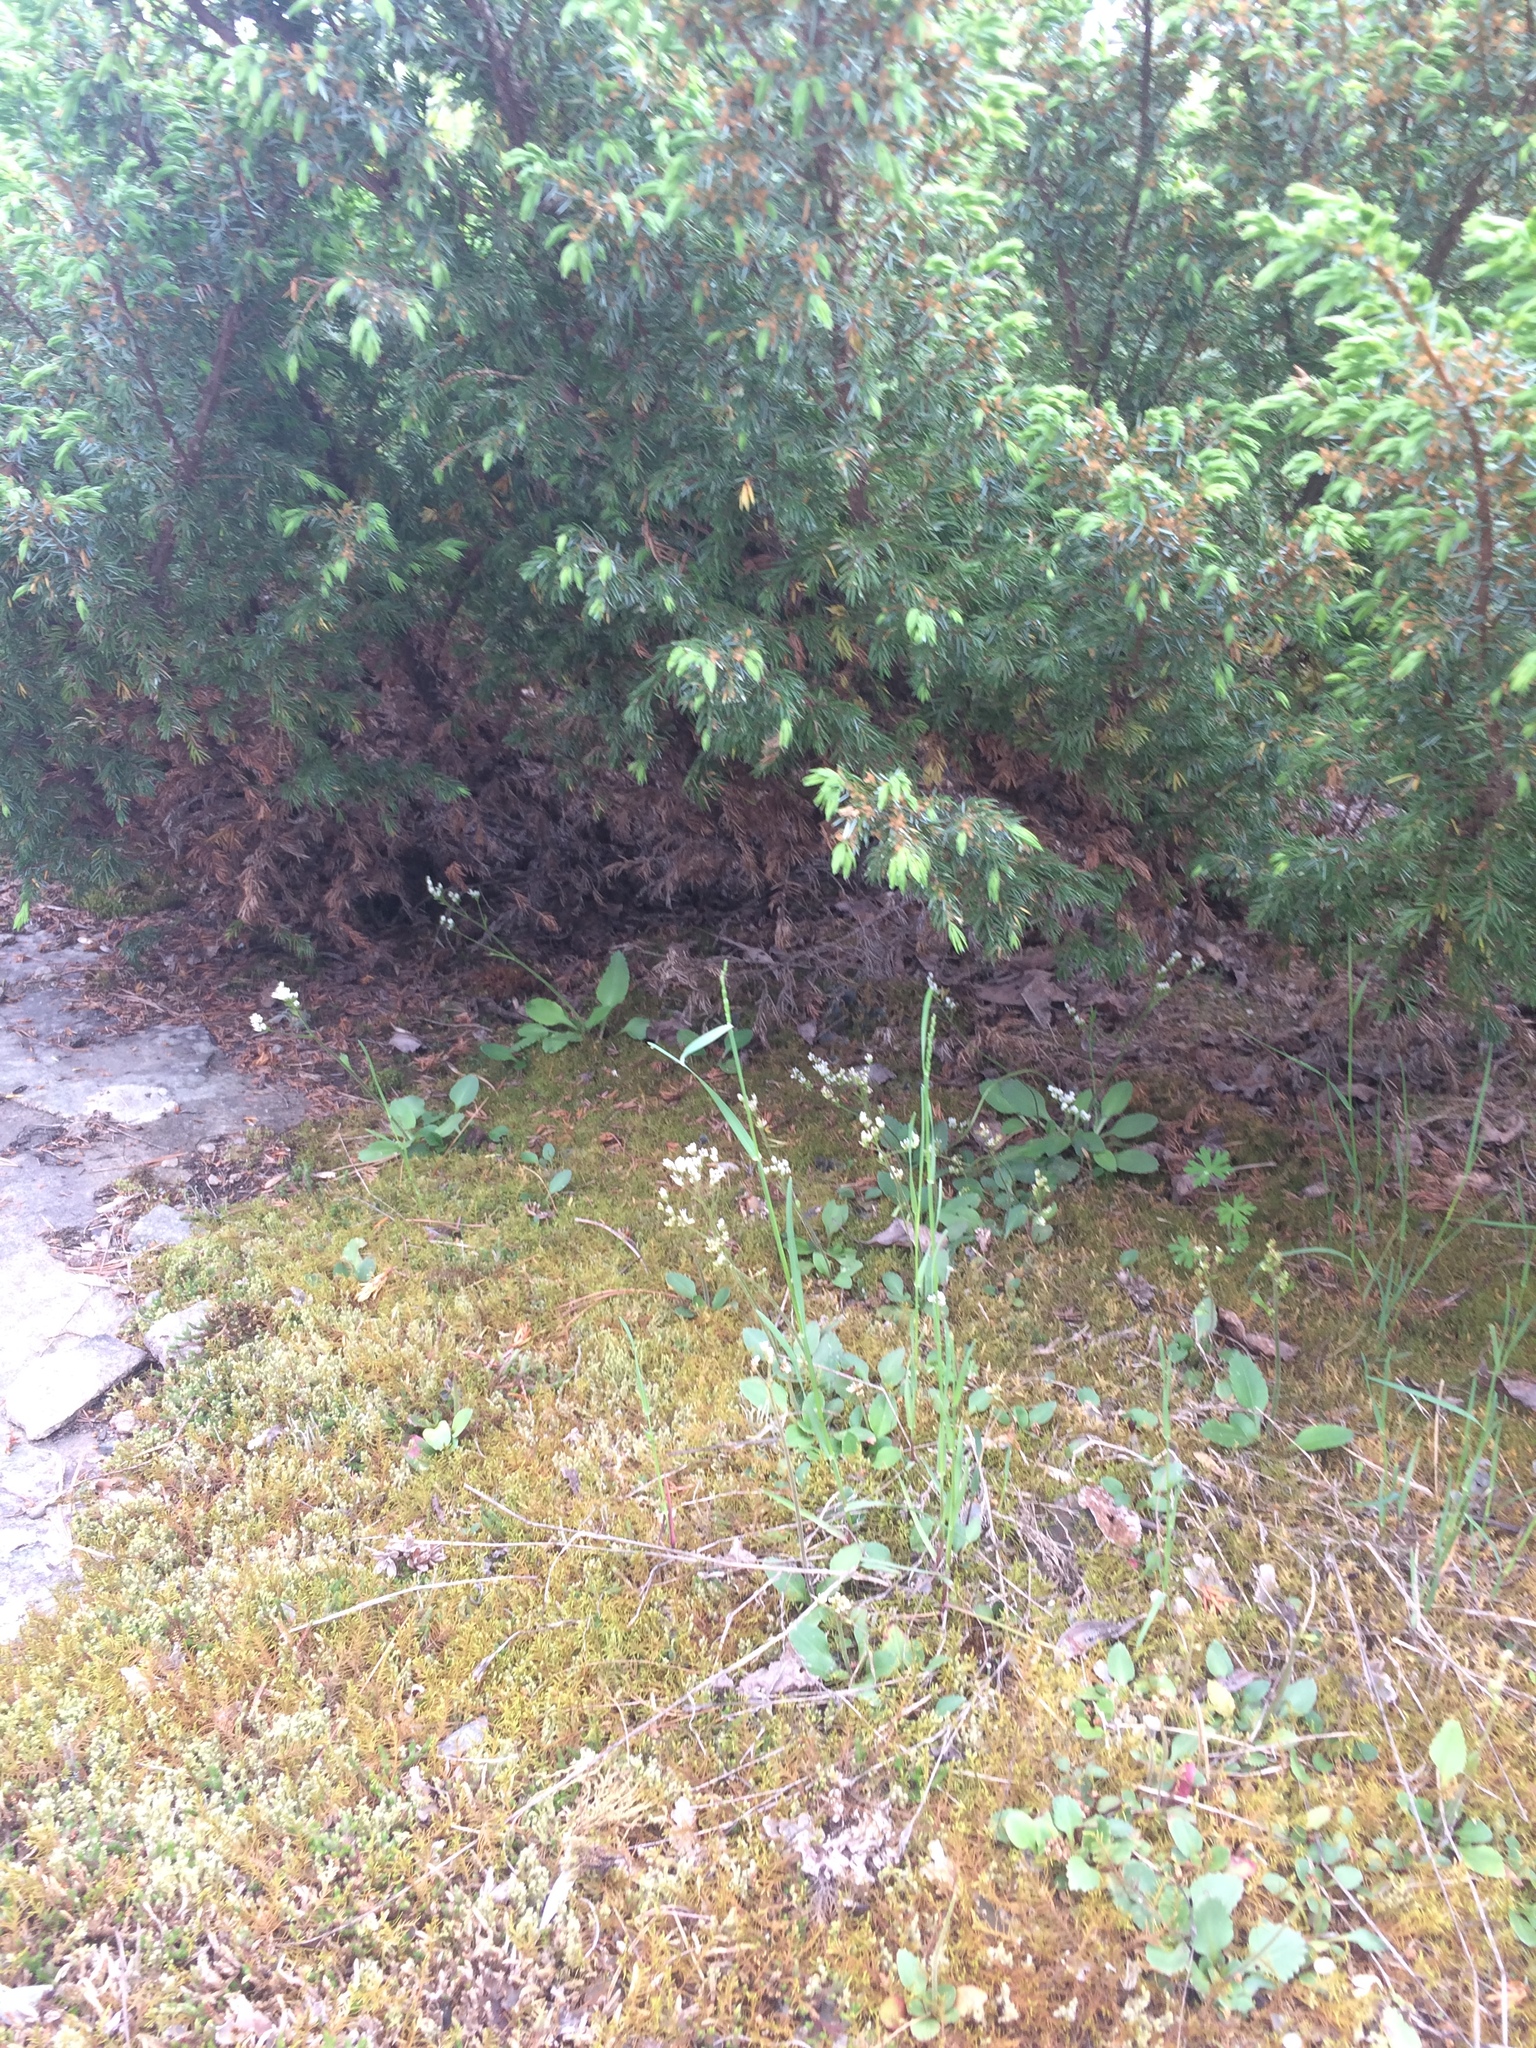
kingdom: Plantae
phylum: Tracheophyta
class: Magnoliopsida
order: Saxifragales
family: Saxifragaceae
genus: Micranthes
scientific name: Micranthes virginiensis
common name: Early saxifrage
